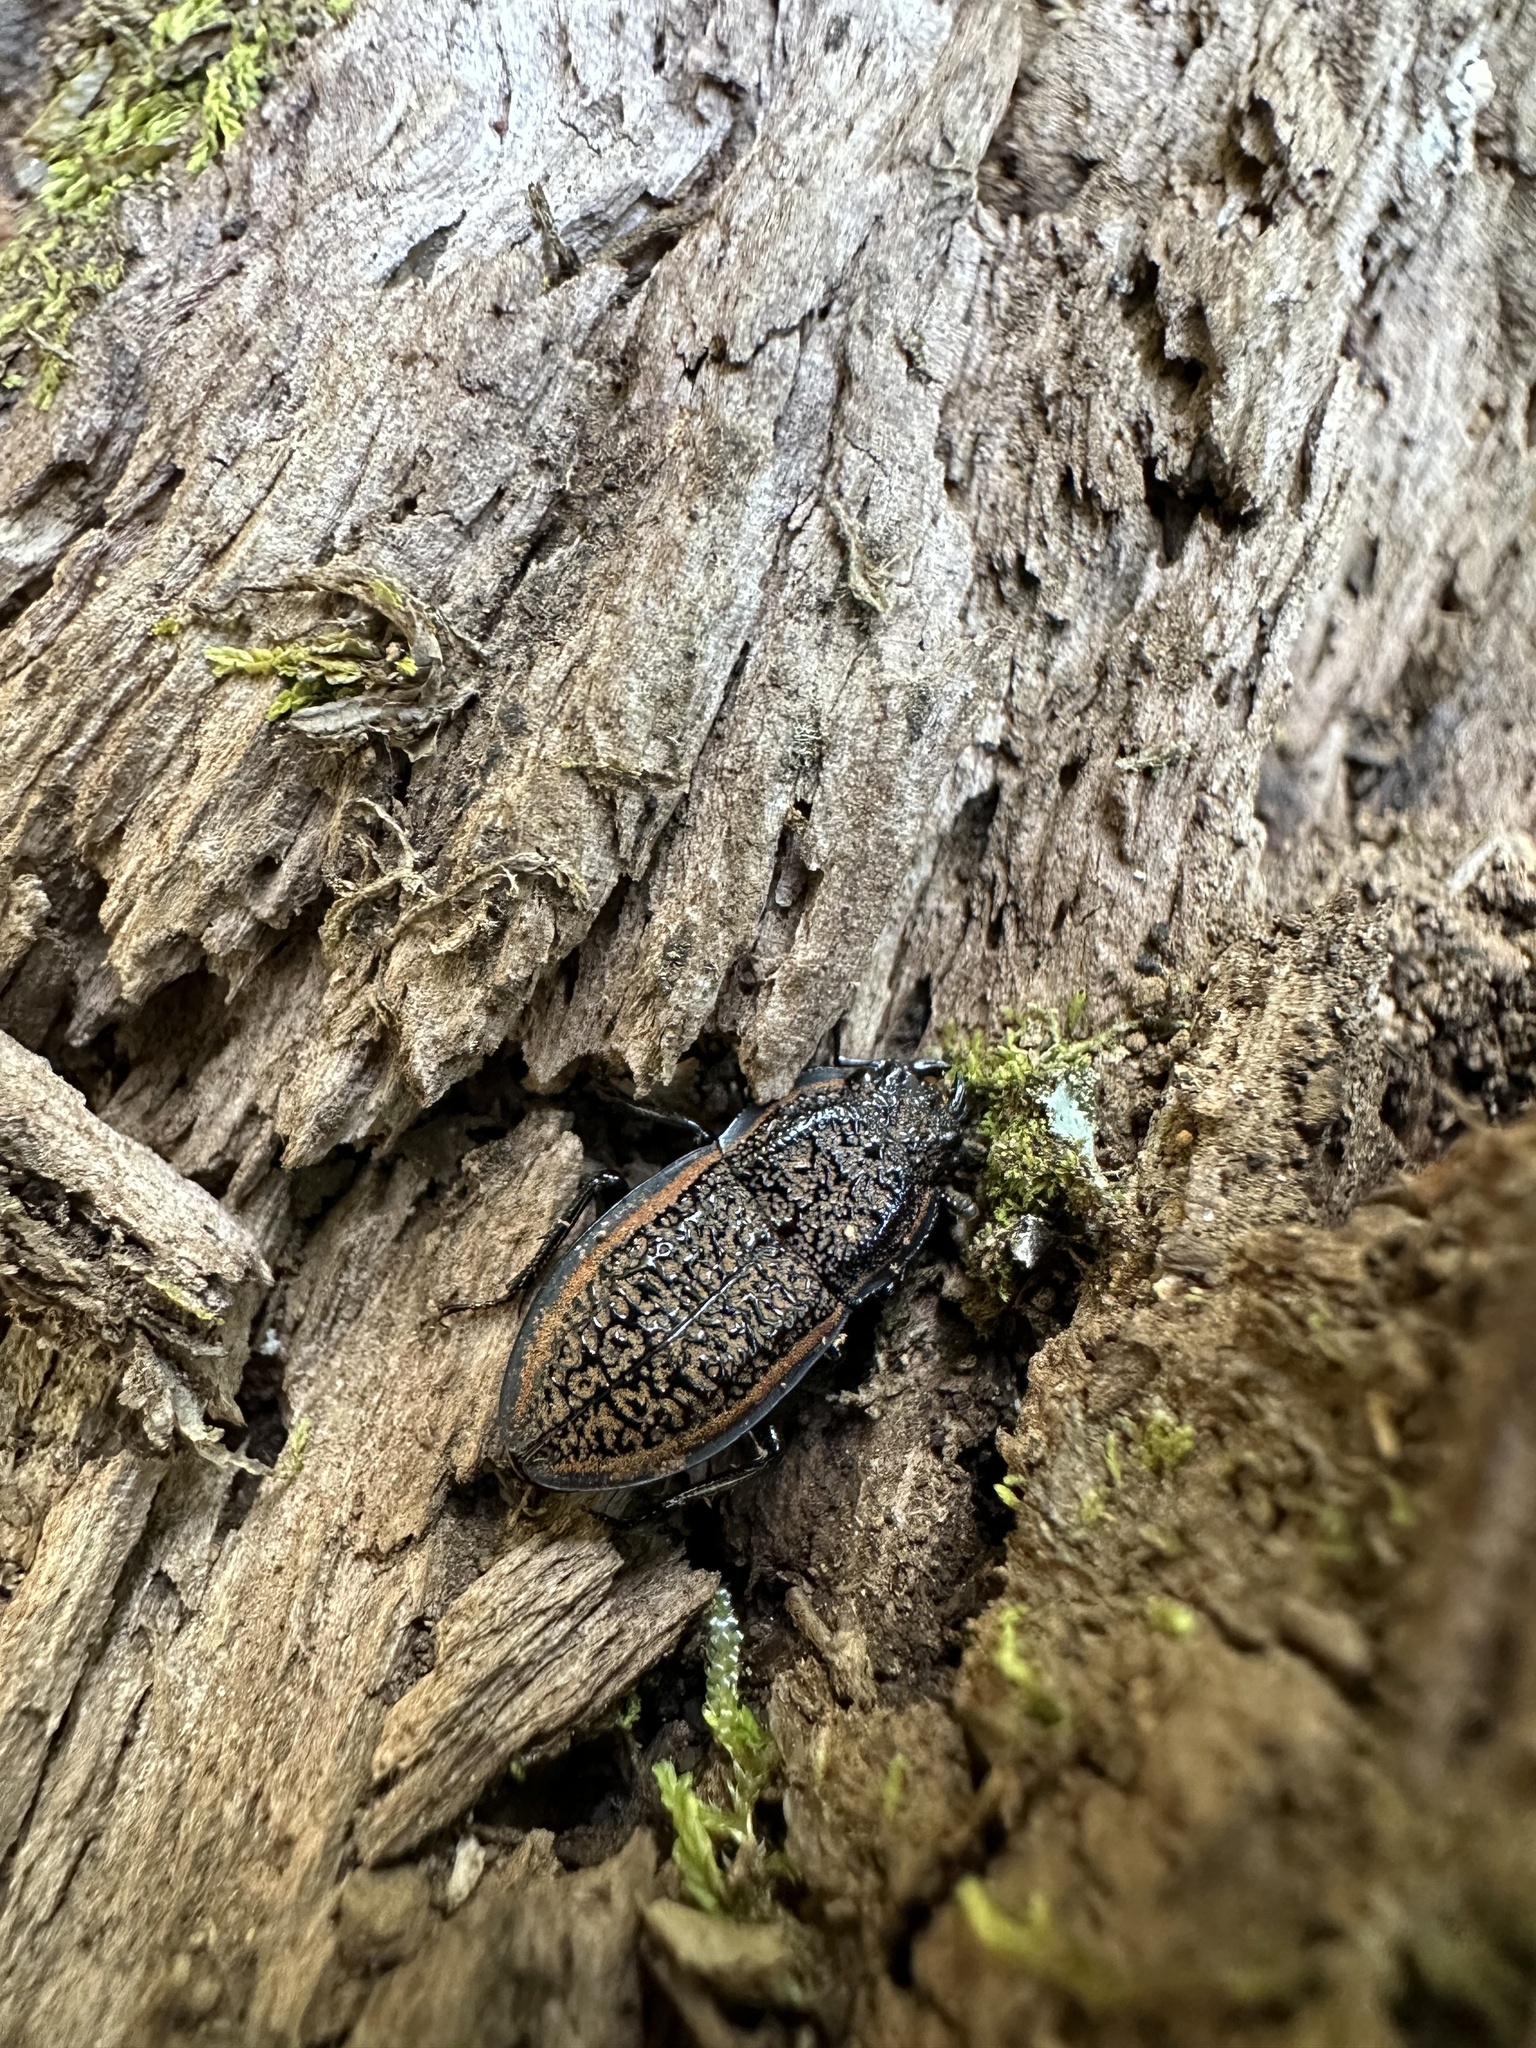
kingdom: Animalia
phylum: Arthropoda
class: Insecta
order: Coleoptera
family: Lucanidae
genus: Erichius
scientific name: Erichius caelatus
